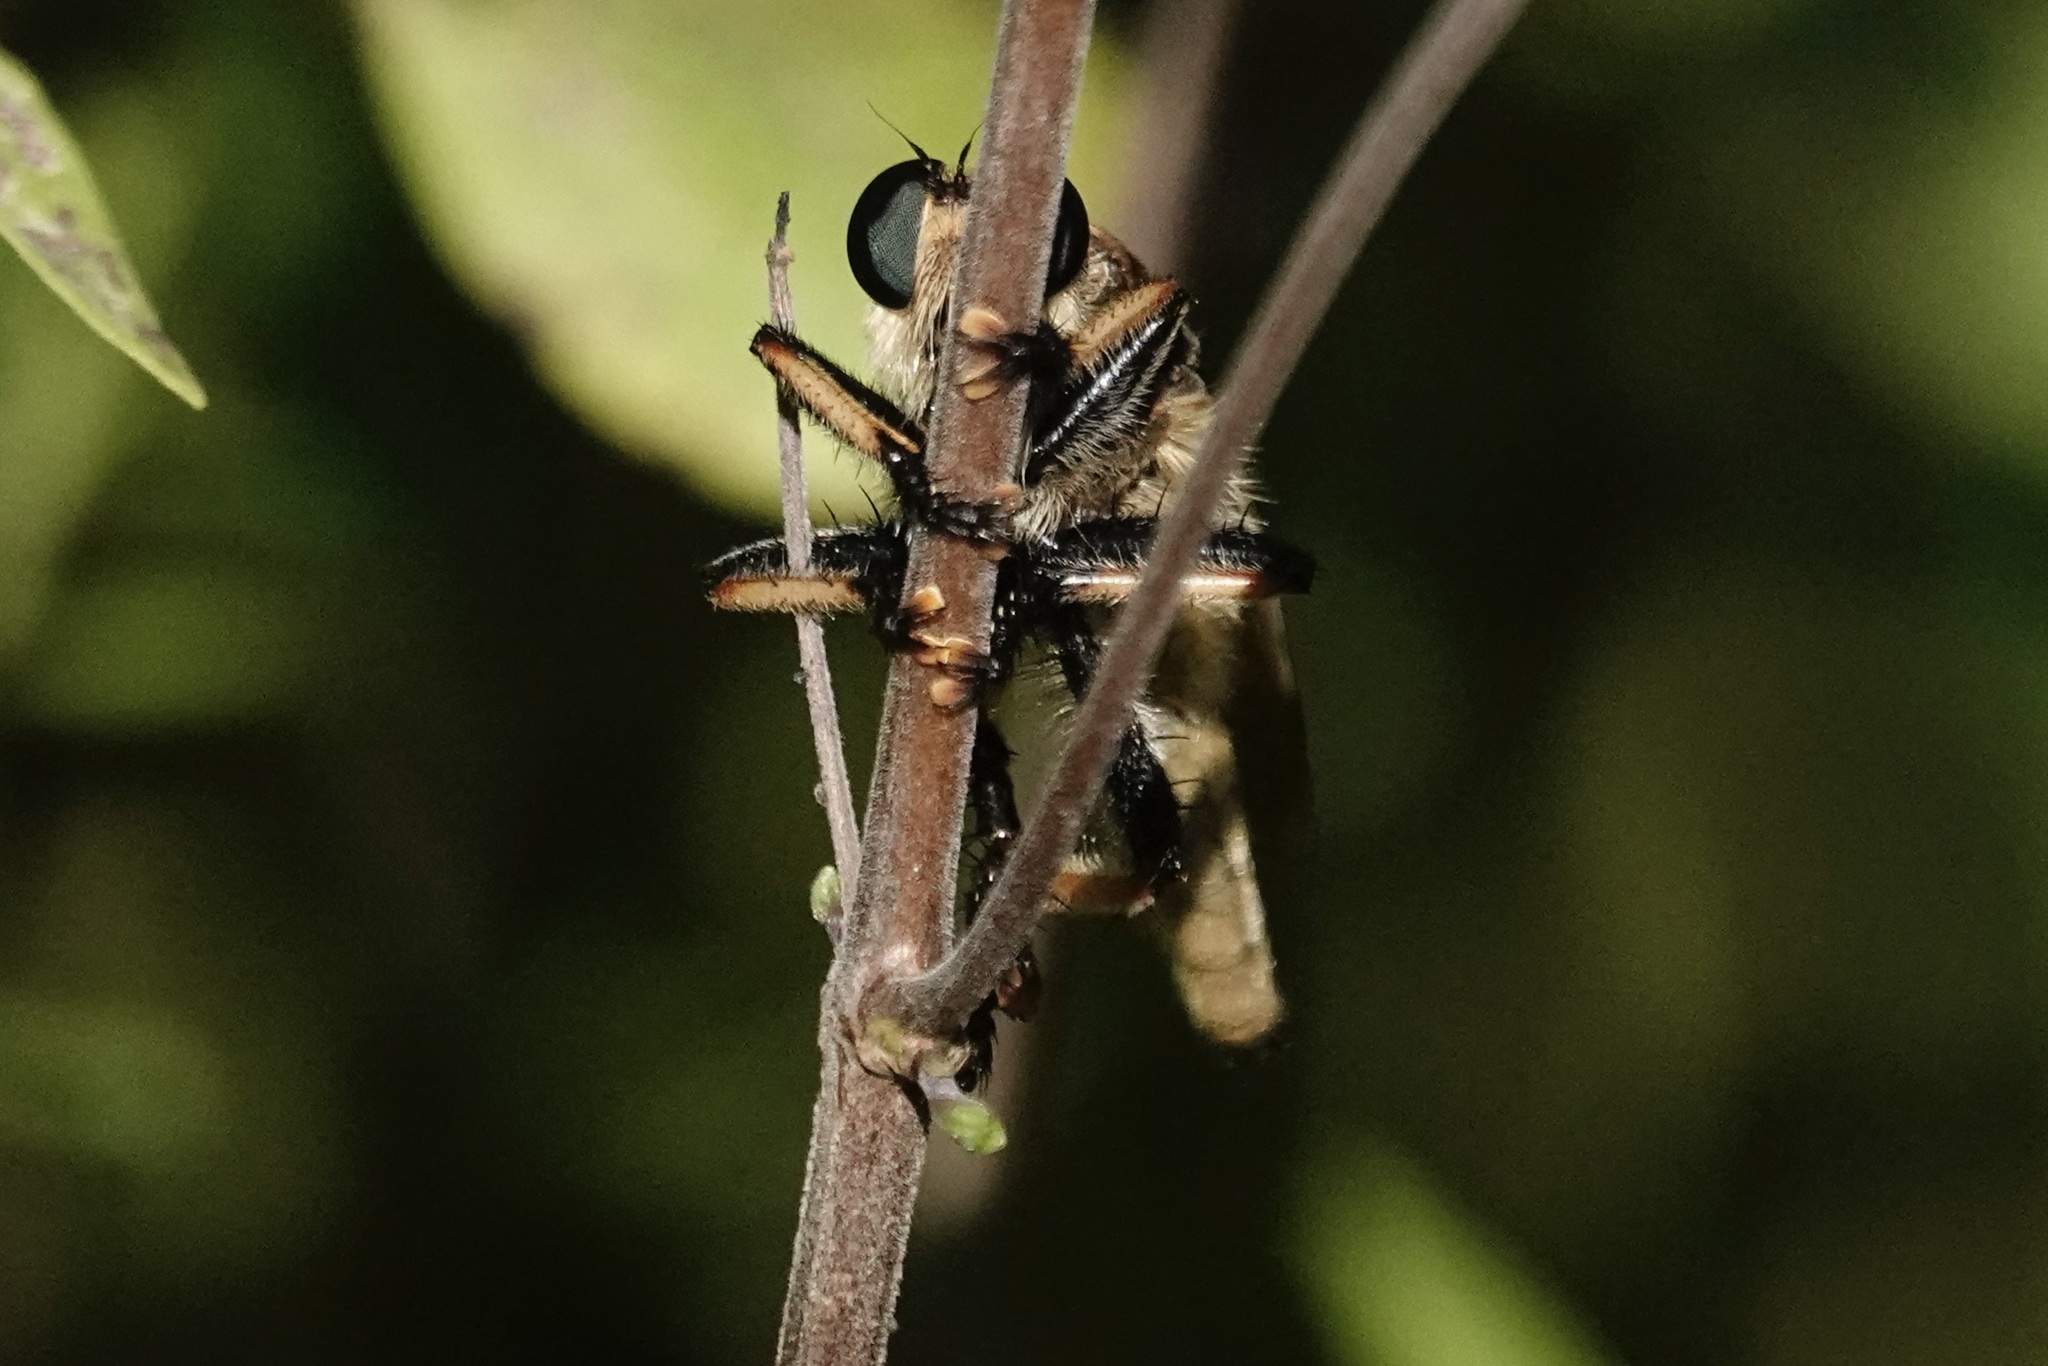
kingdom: Animalia
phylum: Arthropoda
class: Insecta
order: Diptera
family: Asilidae
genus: Promachus
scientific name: Promachus rufipes
